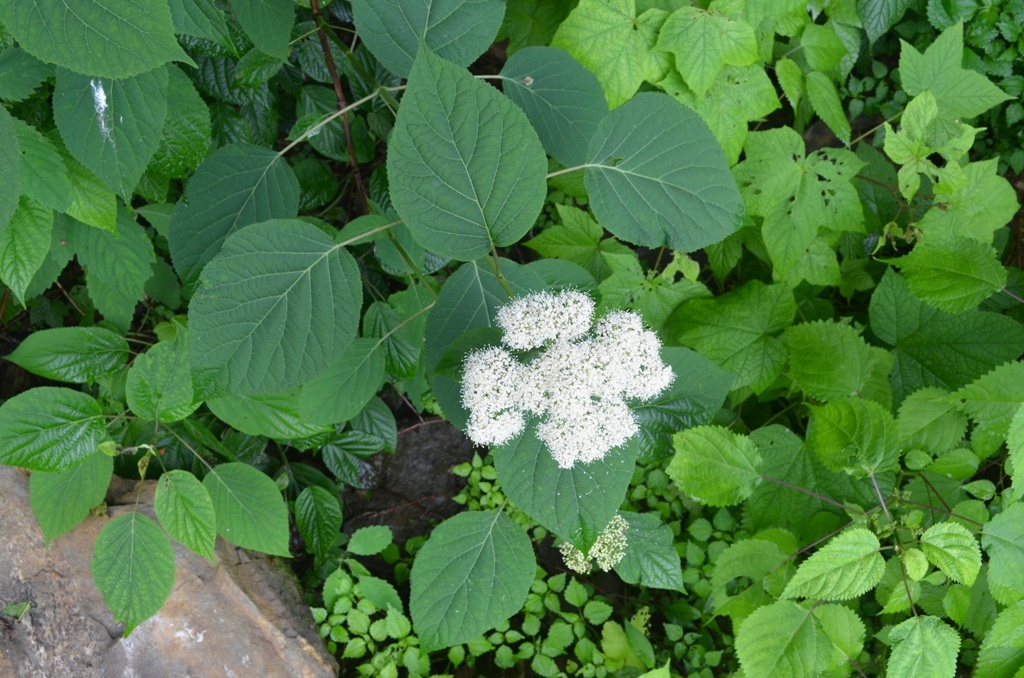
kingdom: Plantae
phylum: Tracheophyta
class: Magnoliopsida
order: Cornales
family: Hydrangeaceae
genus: Hydrangea
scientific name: Hydrangea arborescens
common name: Sevenbark
